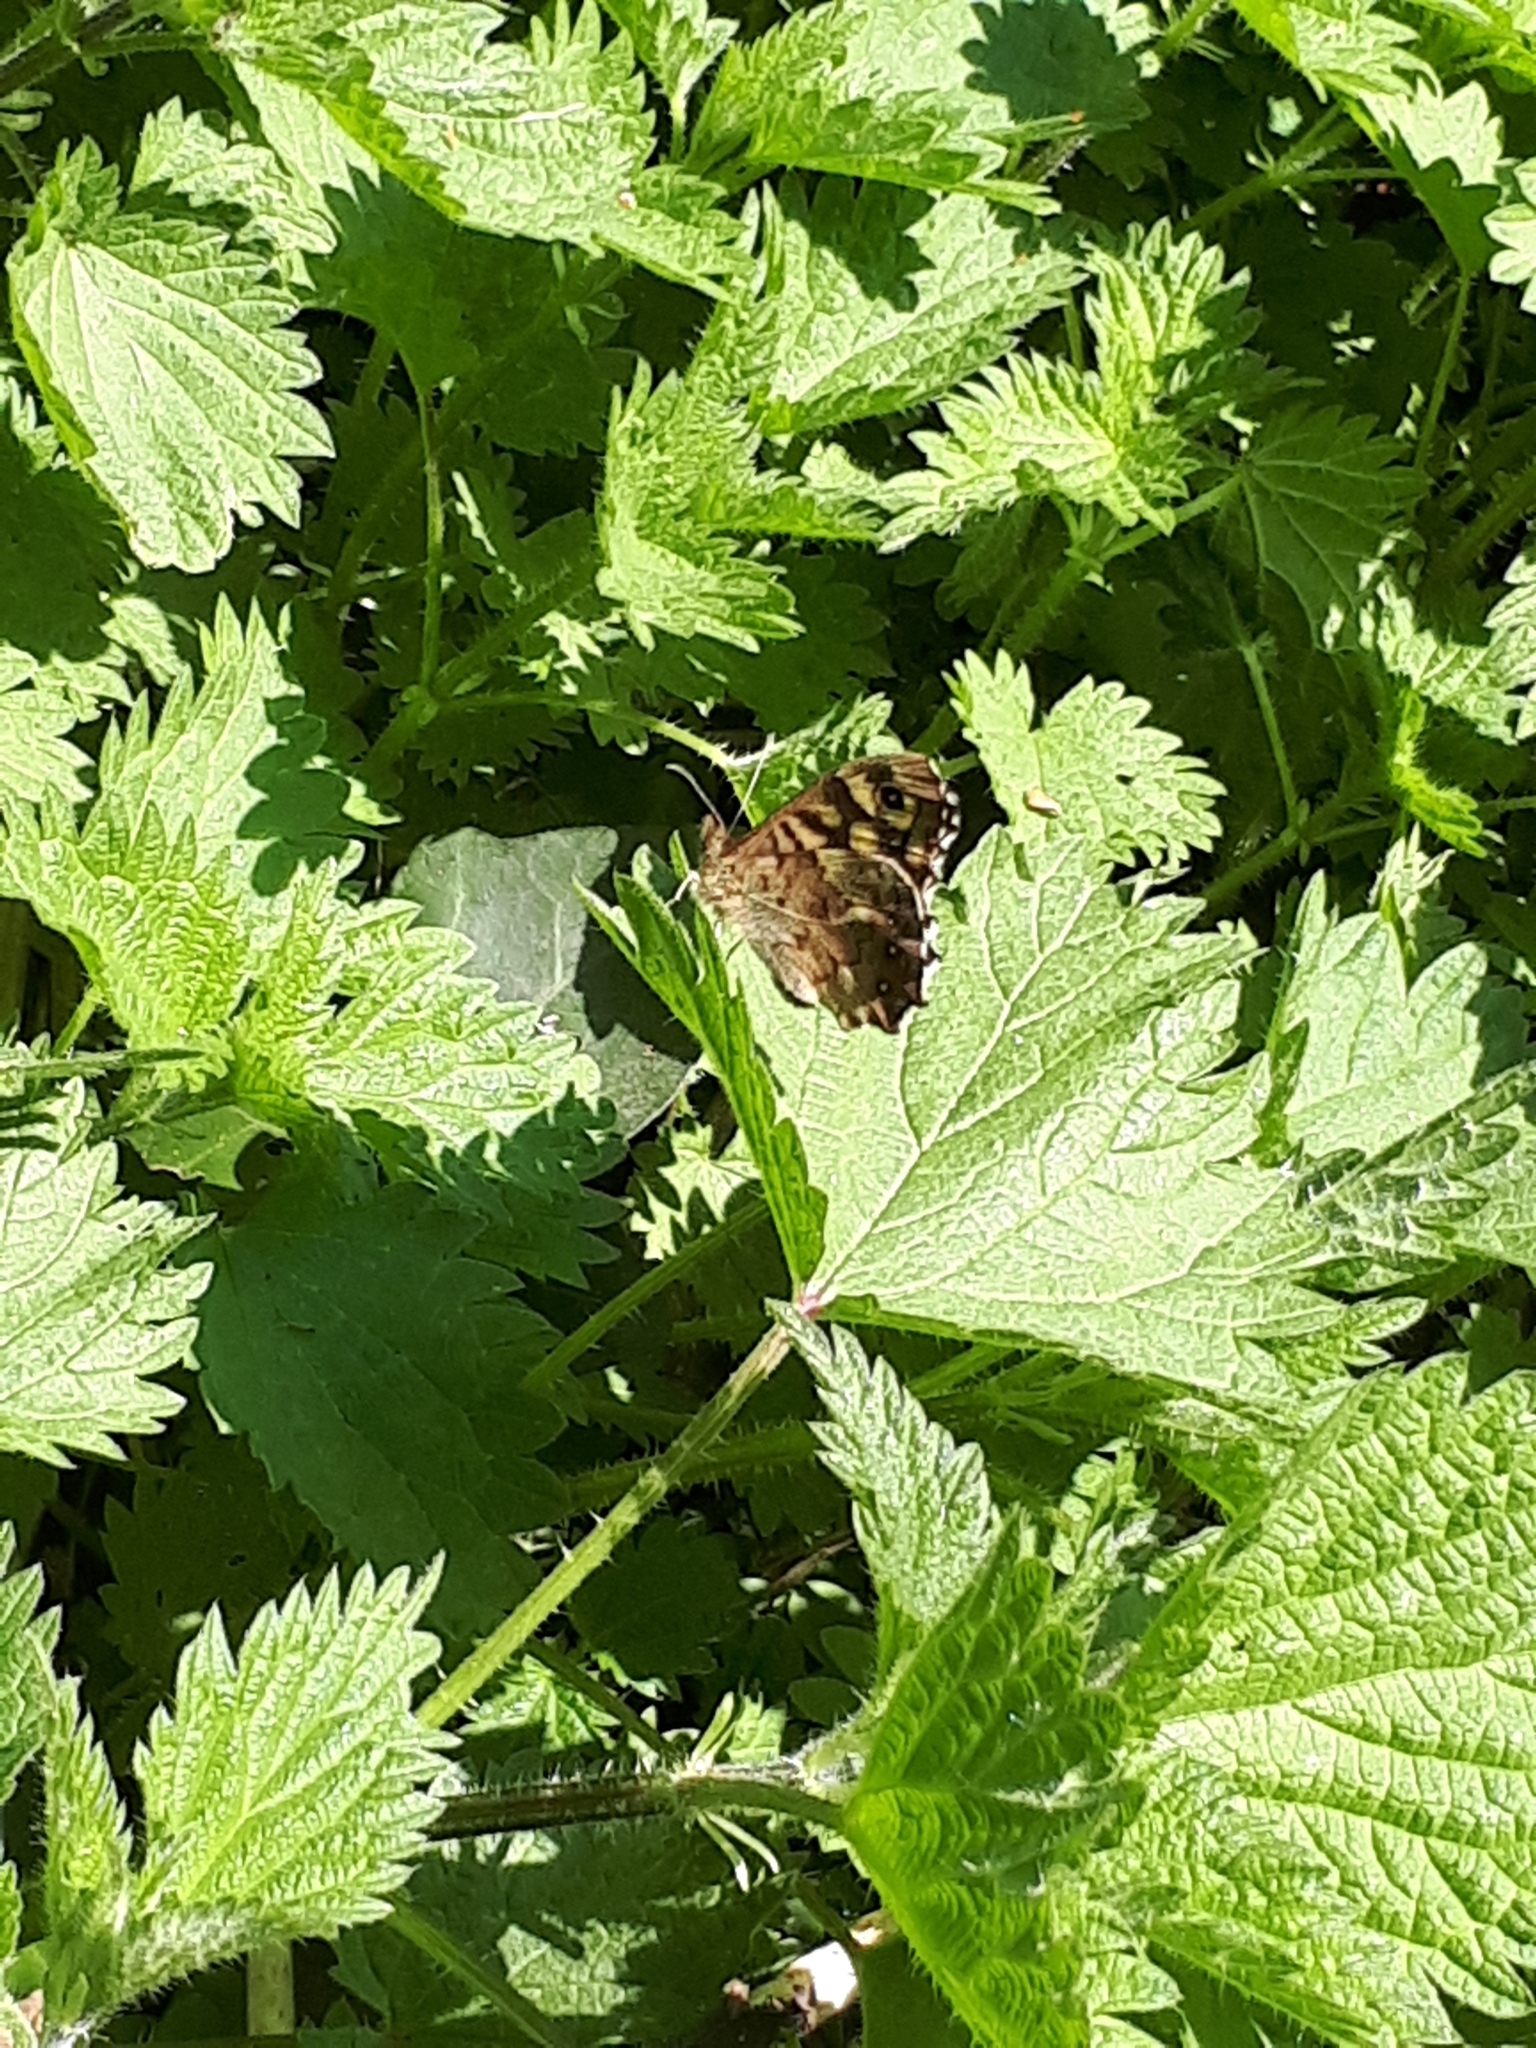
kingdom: Animalia
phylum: Arthropoda
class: Insecta
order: Lepidoptera
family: Nymphalidae
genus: Pararge
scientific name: Pararge aegeria
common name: Speckled wood
